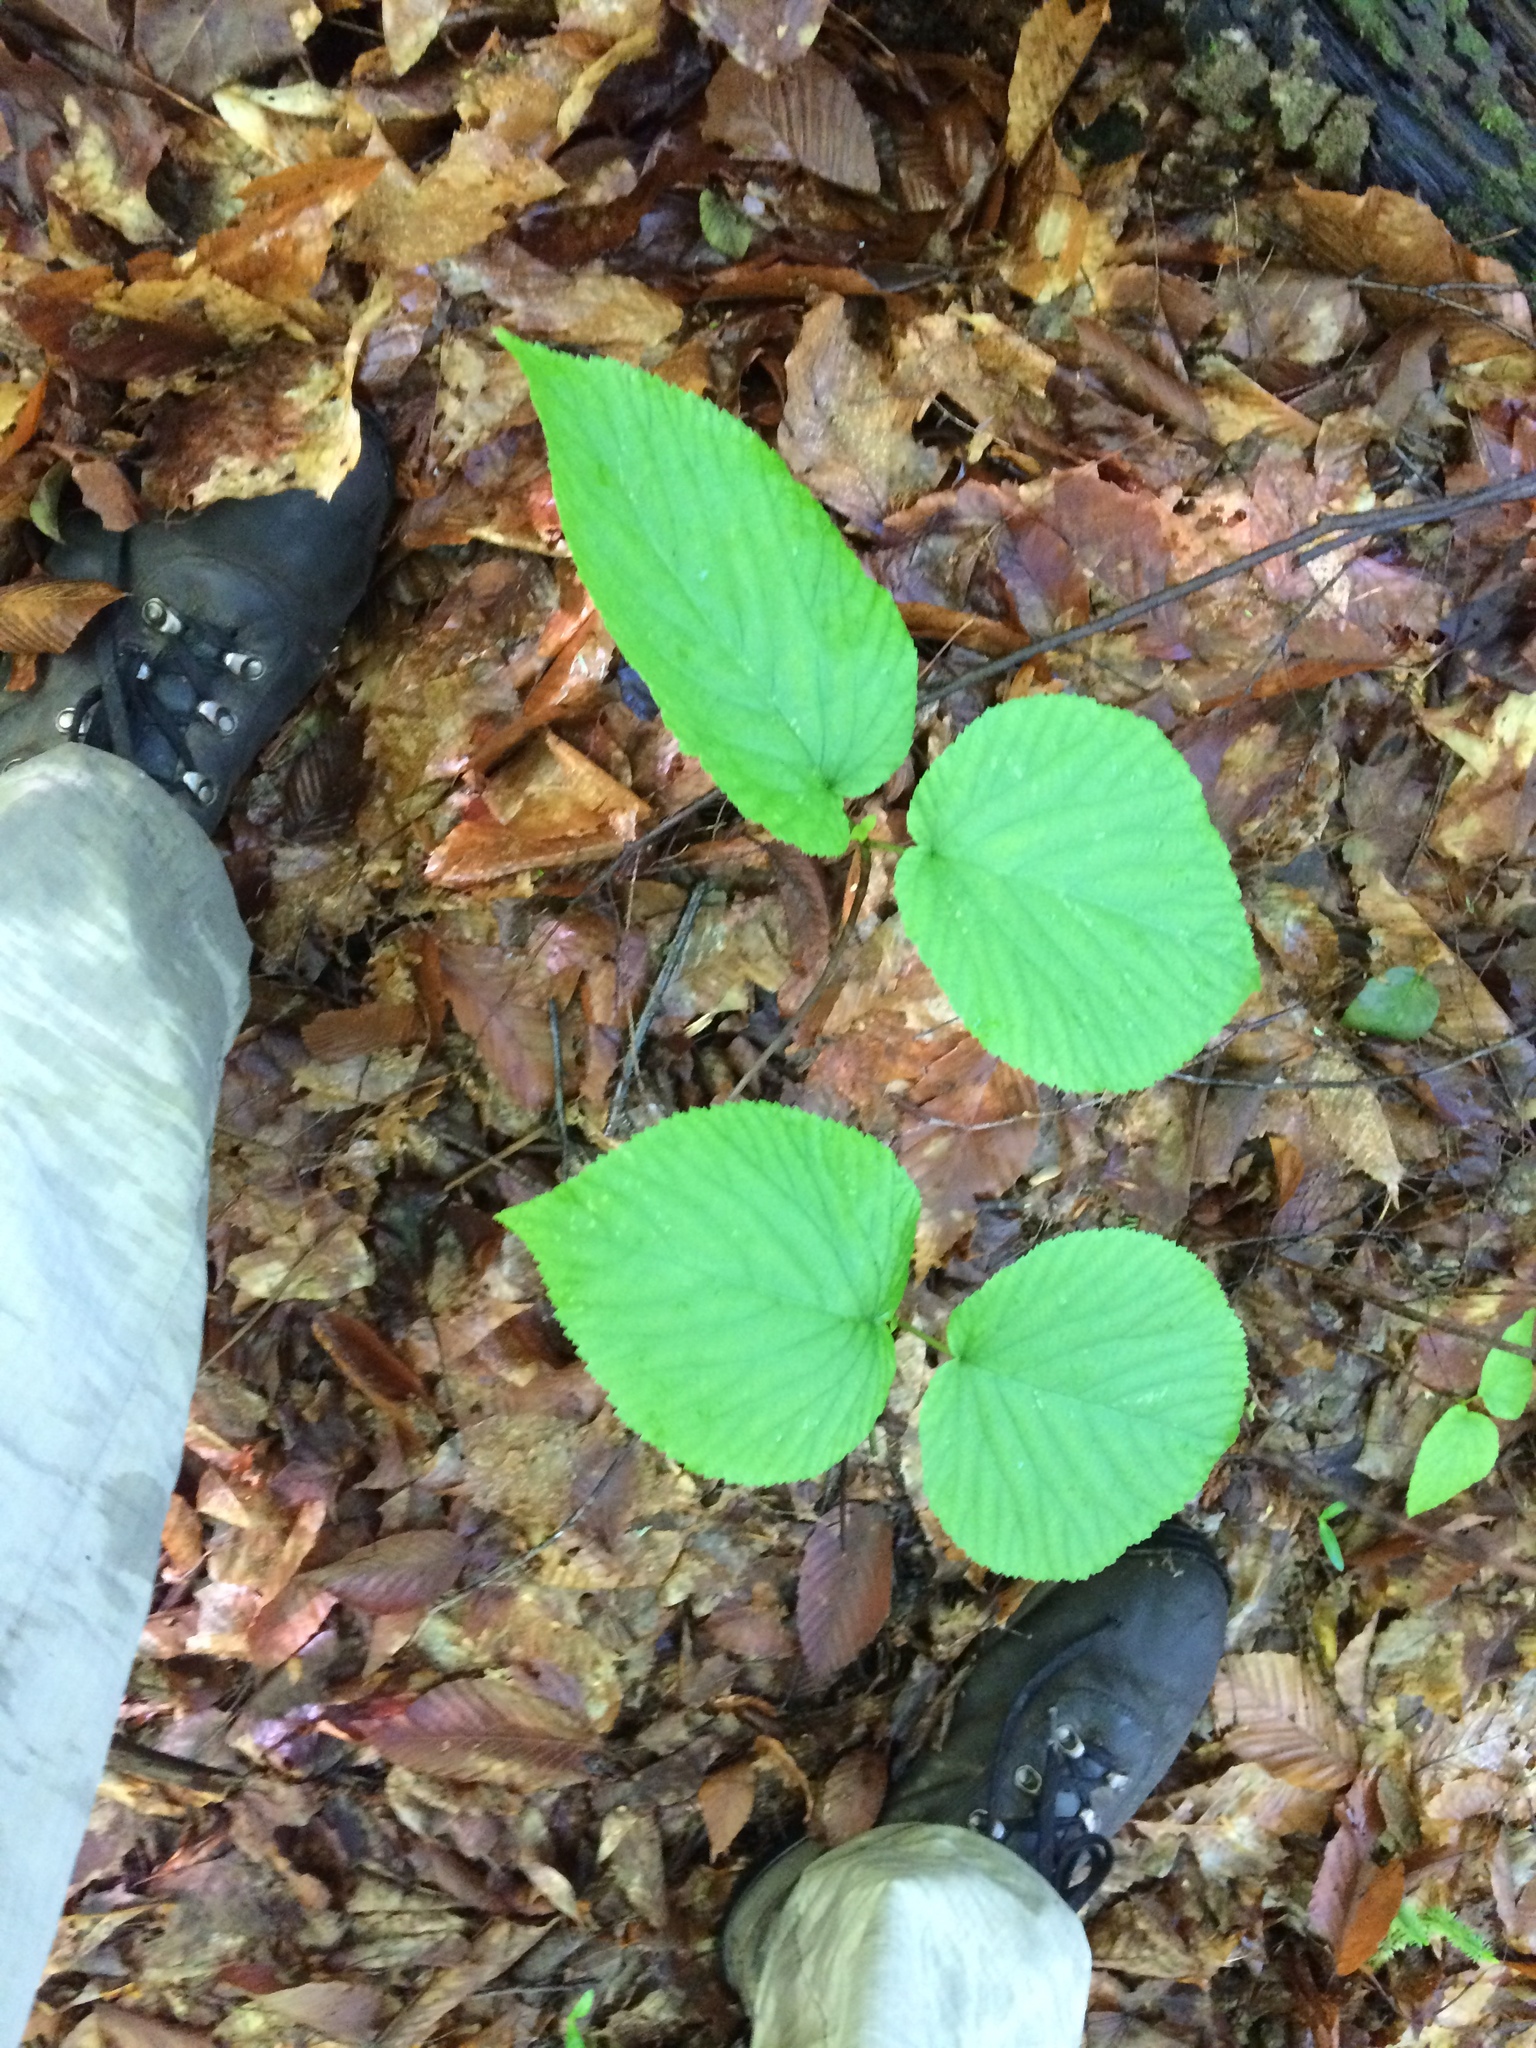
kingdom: Plantae
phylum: Tracheophyta
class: Magnoliopsida
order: Dipsacales
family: Viburnaceae
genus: Viburnum
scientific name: Viburnum lantanoides
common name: Hobblebush
